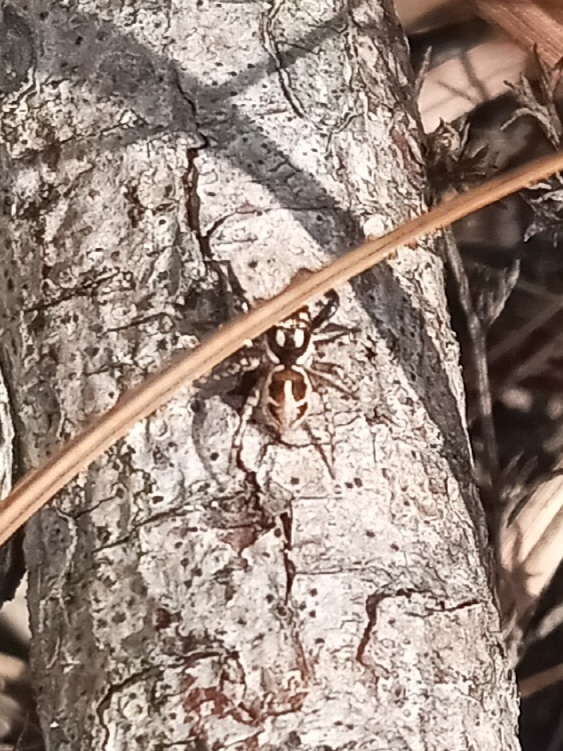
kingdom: Animalia
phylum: Arthropoda
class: Arachnida
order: Araneae
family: Salticidae
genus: Anasaitis
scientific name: Anasaitis canosa
